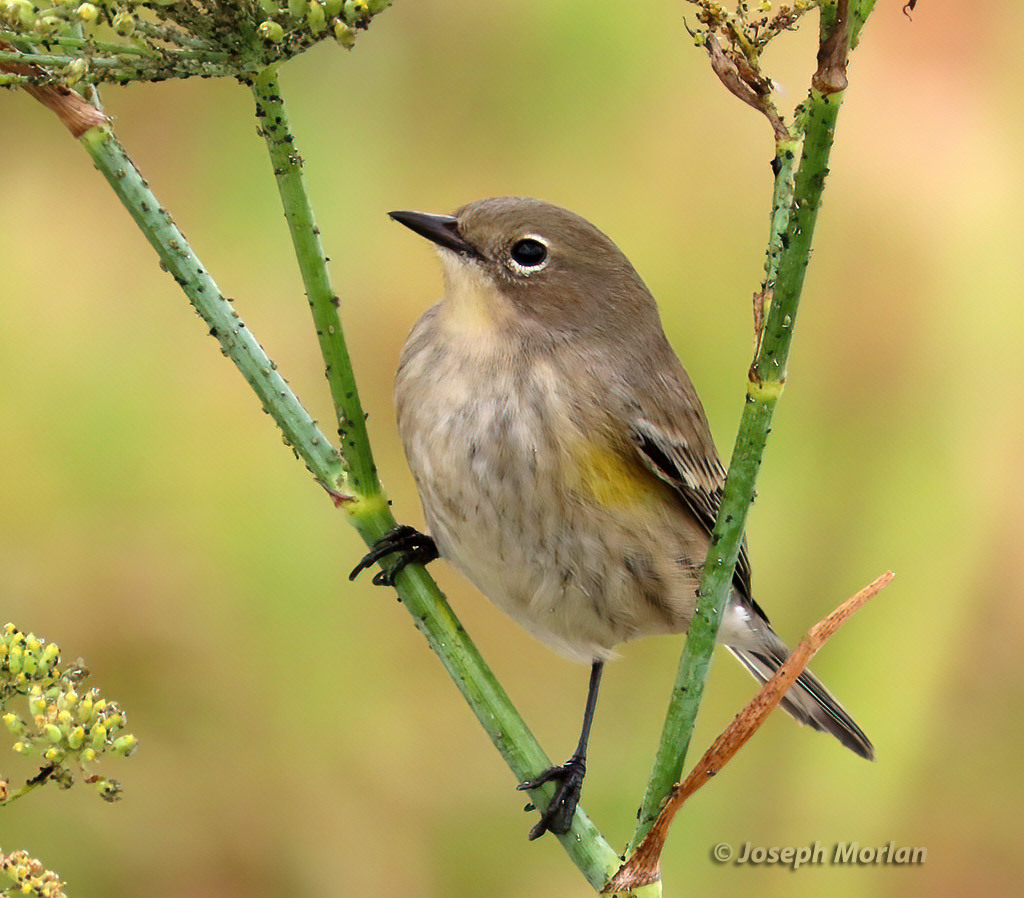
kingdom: Animalia
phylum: Chordata
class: Aves
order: Passeriformes
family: Parulidae
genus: Setophaga
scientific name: Setophaga coronata
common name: Myrtle warbler
